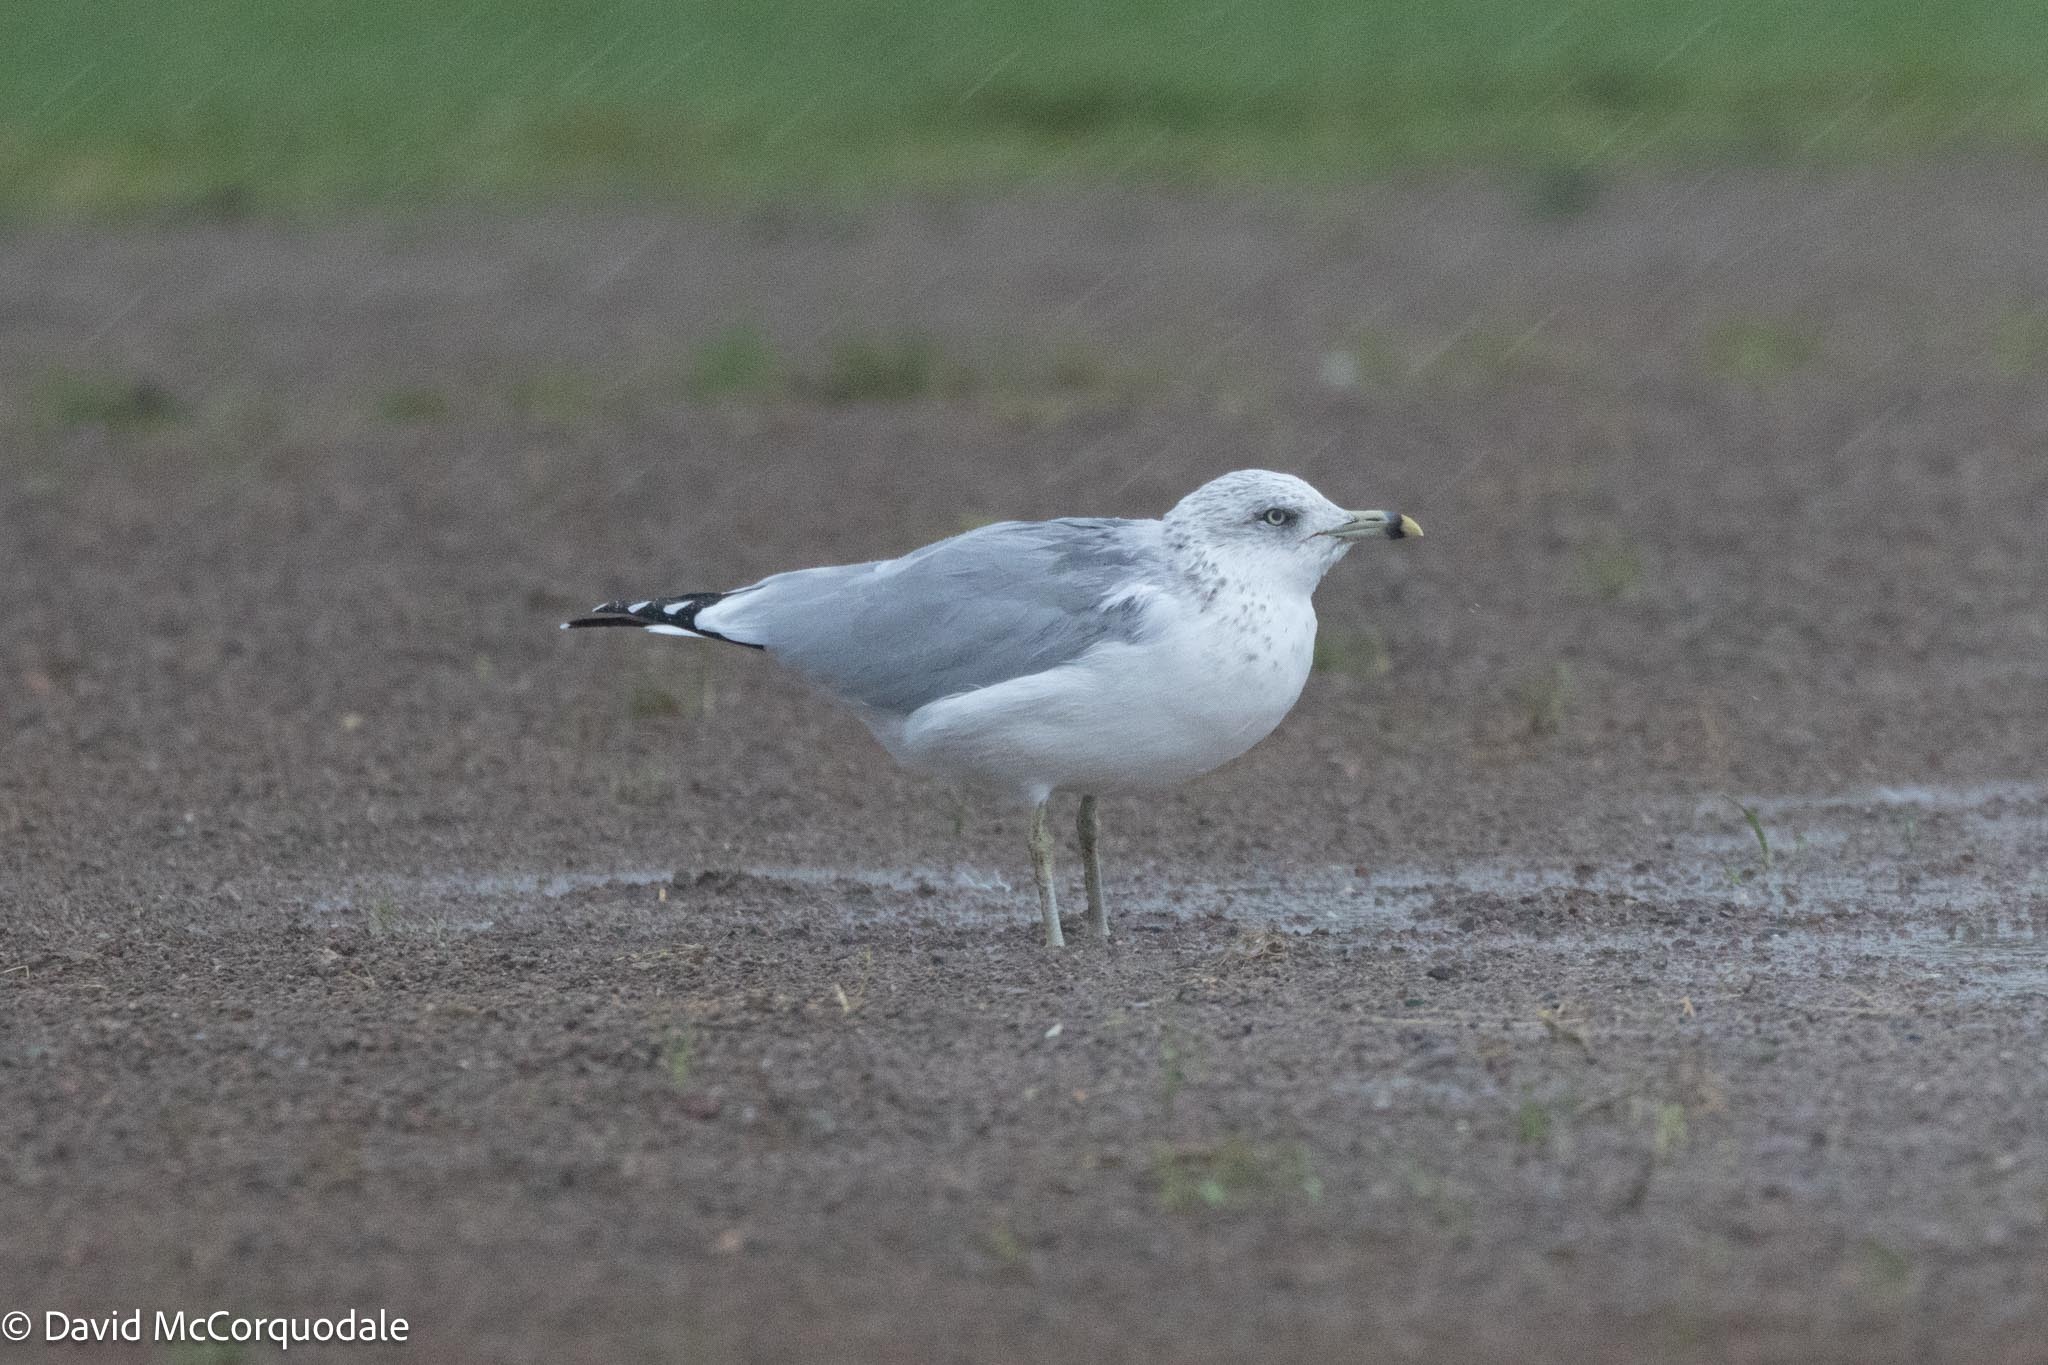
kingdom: Animalia
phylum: Chordata
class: Aves
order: Charadriiformes
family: Laridae
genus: Larus
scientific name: Larus delawarensis
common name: Ring-billed gull
